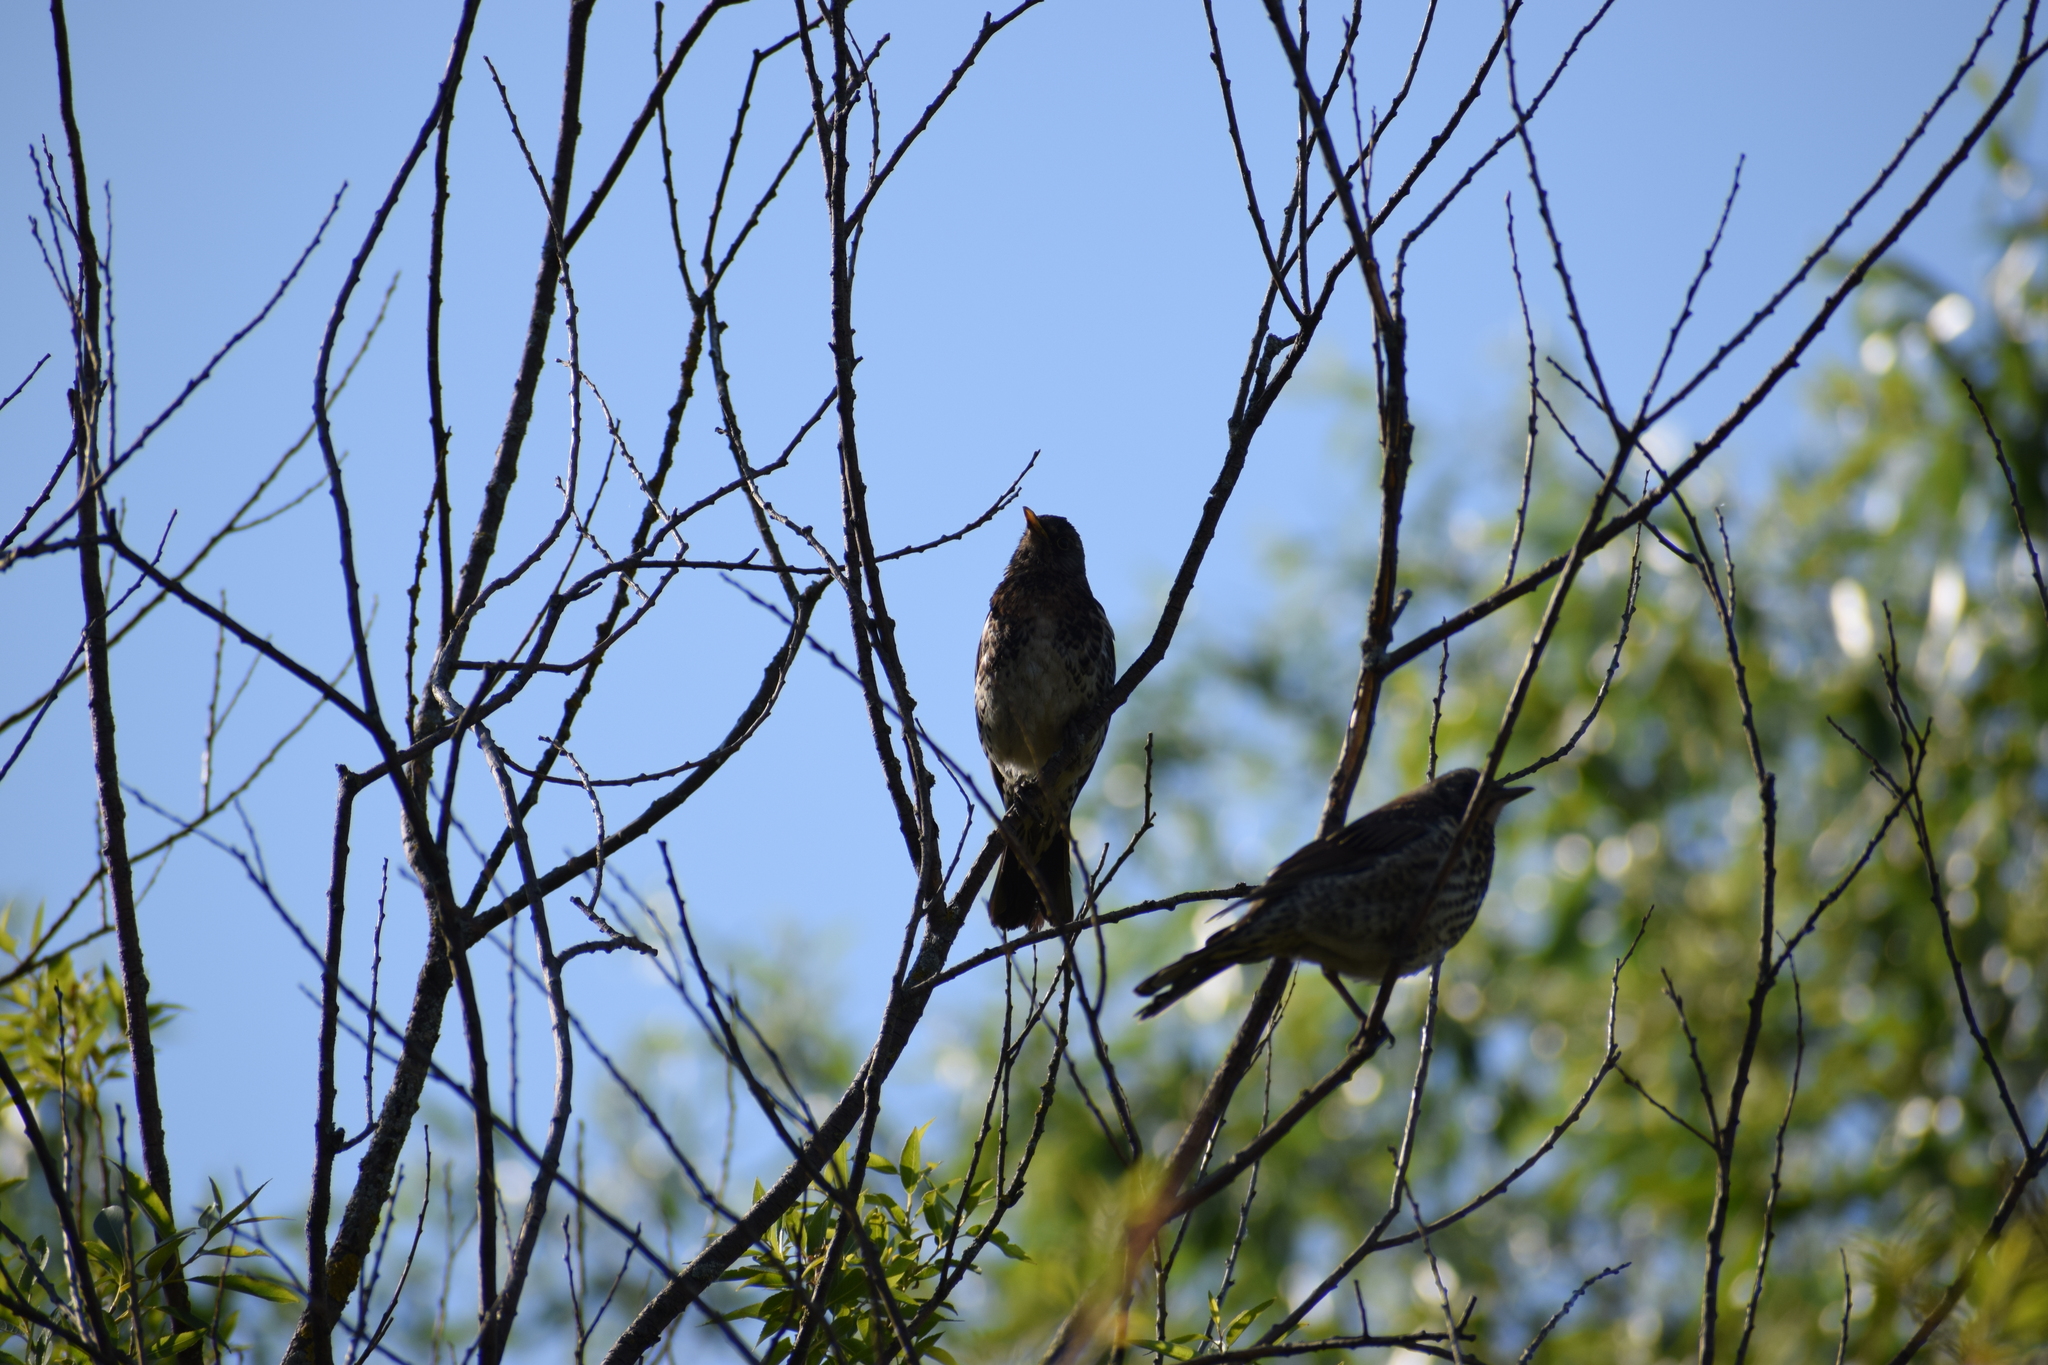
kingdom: Animalia
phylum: Chordata
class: Aves
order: Passeriformes
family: Turdidae
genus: Turdus
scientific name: Turdus pilaris
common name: Fieldfare
